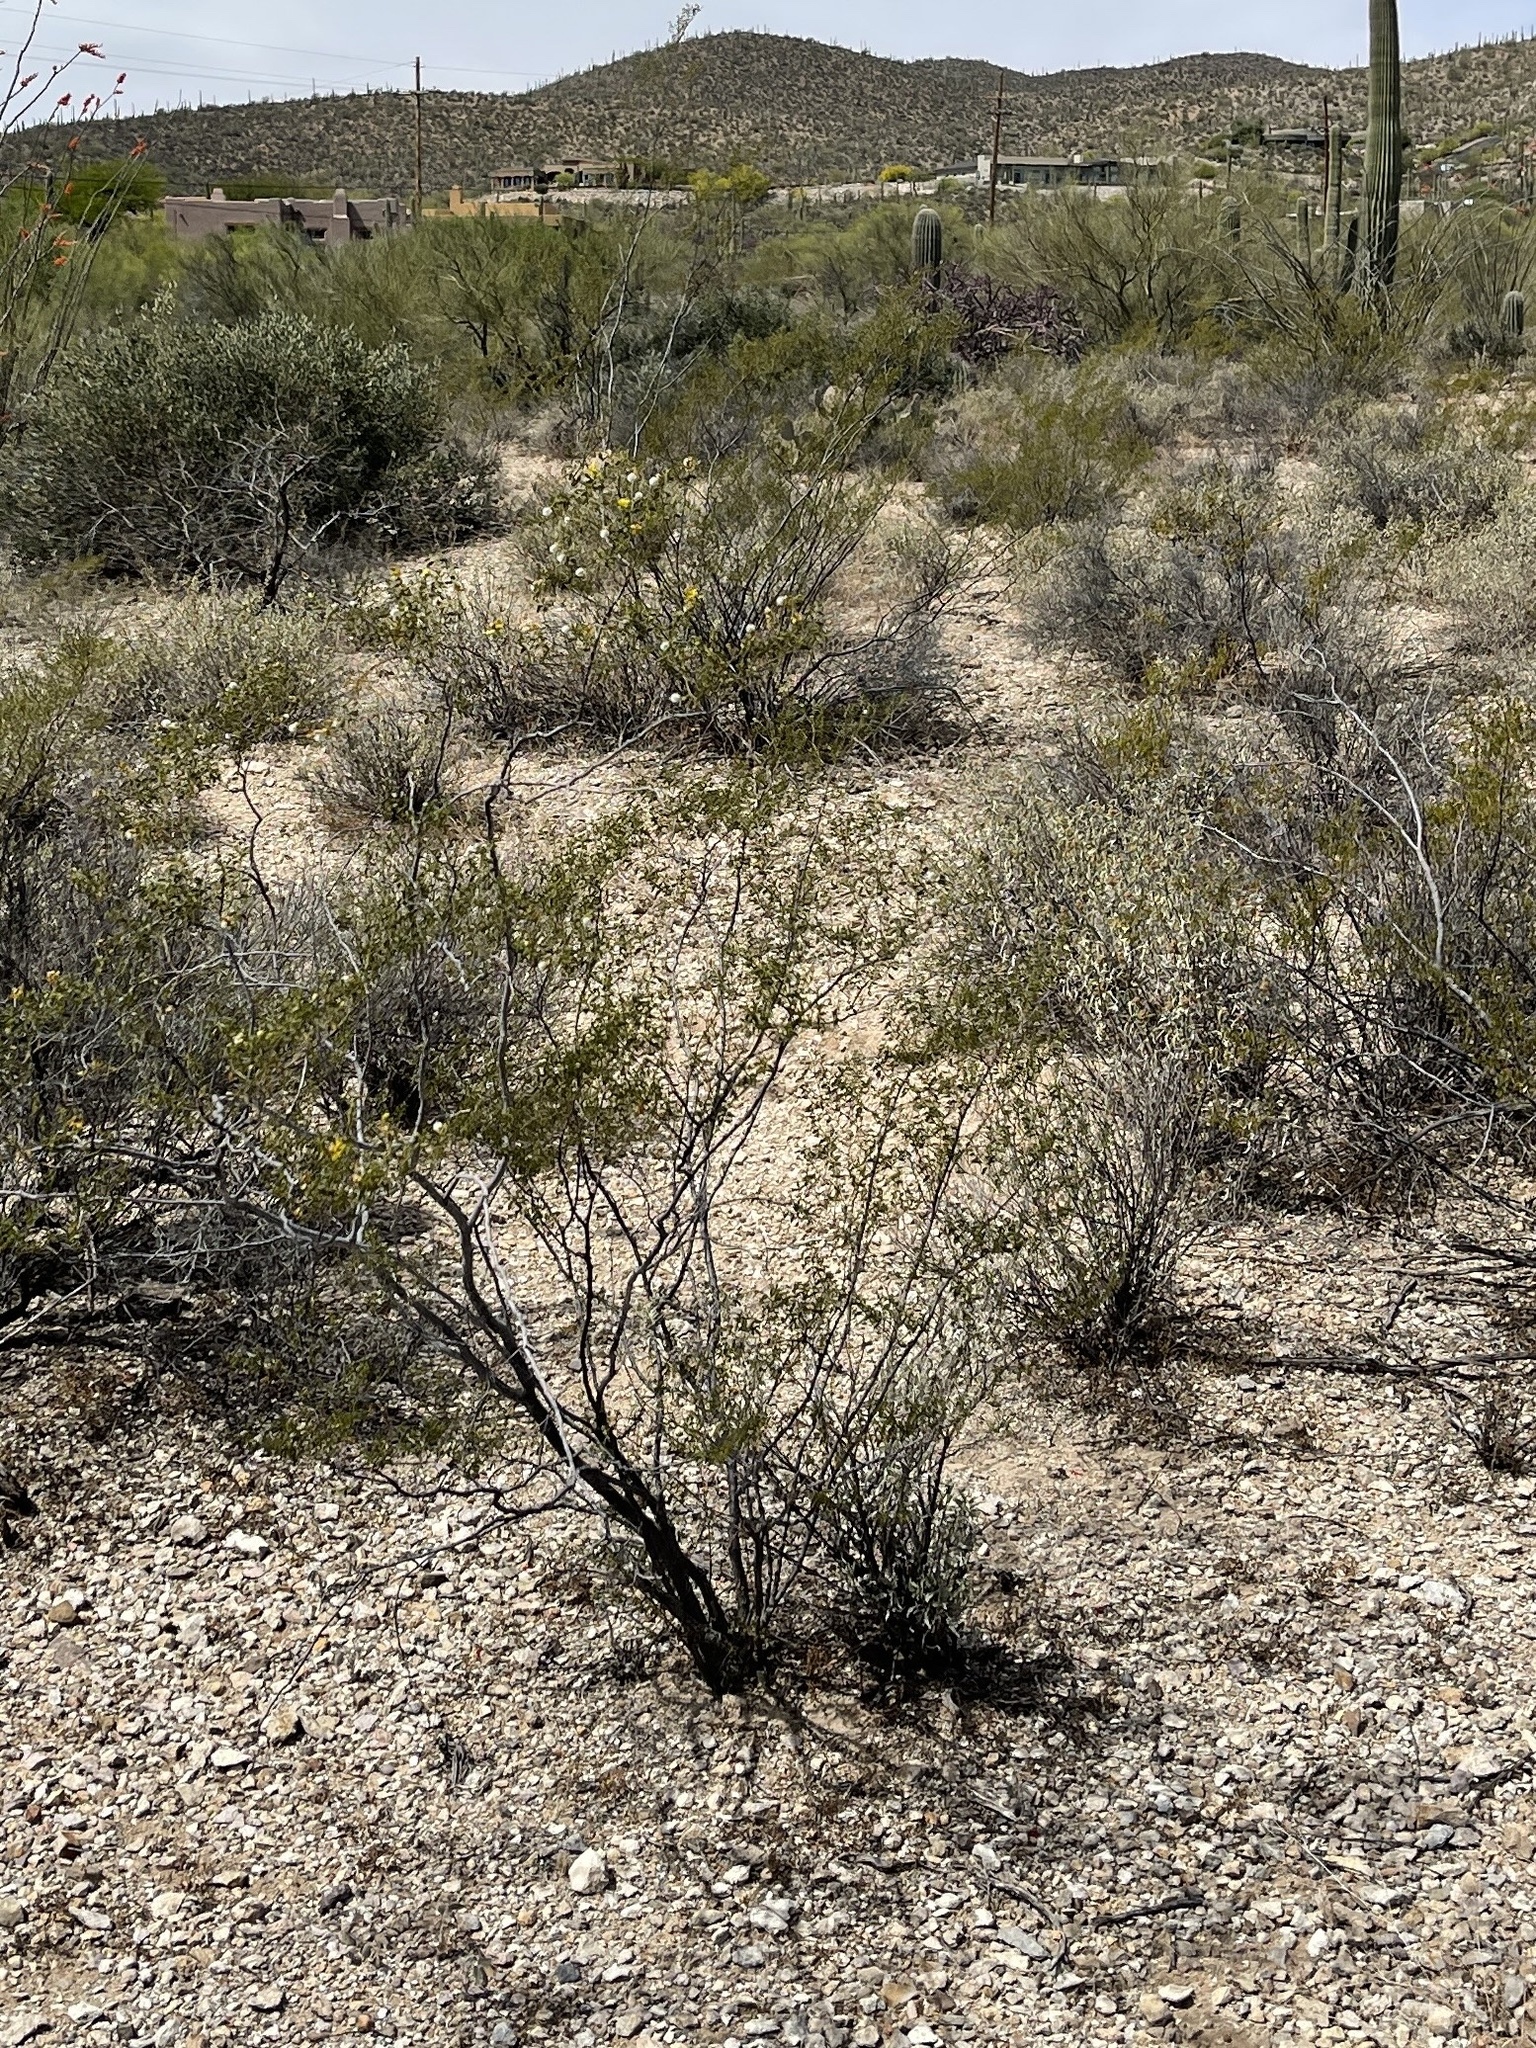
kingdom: Plantae
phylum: Tracheophyta
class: Magnoliopsida
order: Zygophyllales
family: Zygophyllaceae
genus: Larrea
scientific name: Larrea tridentata
